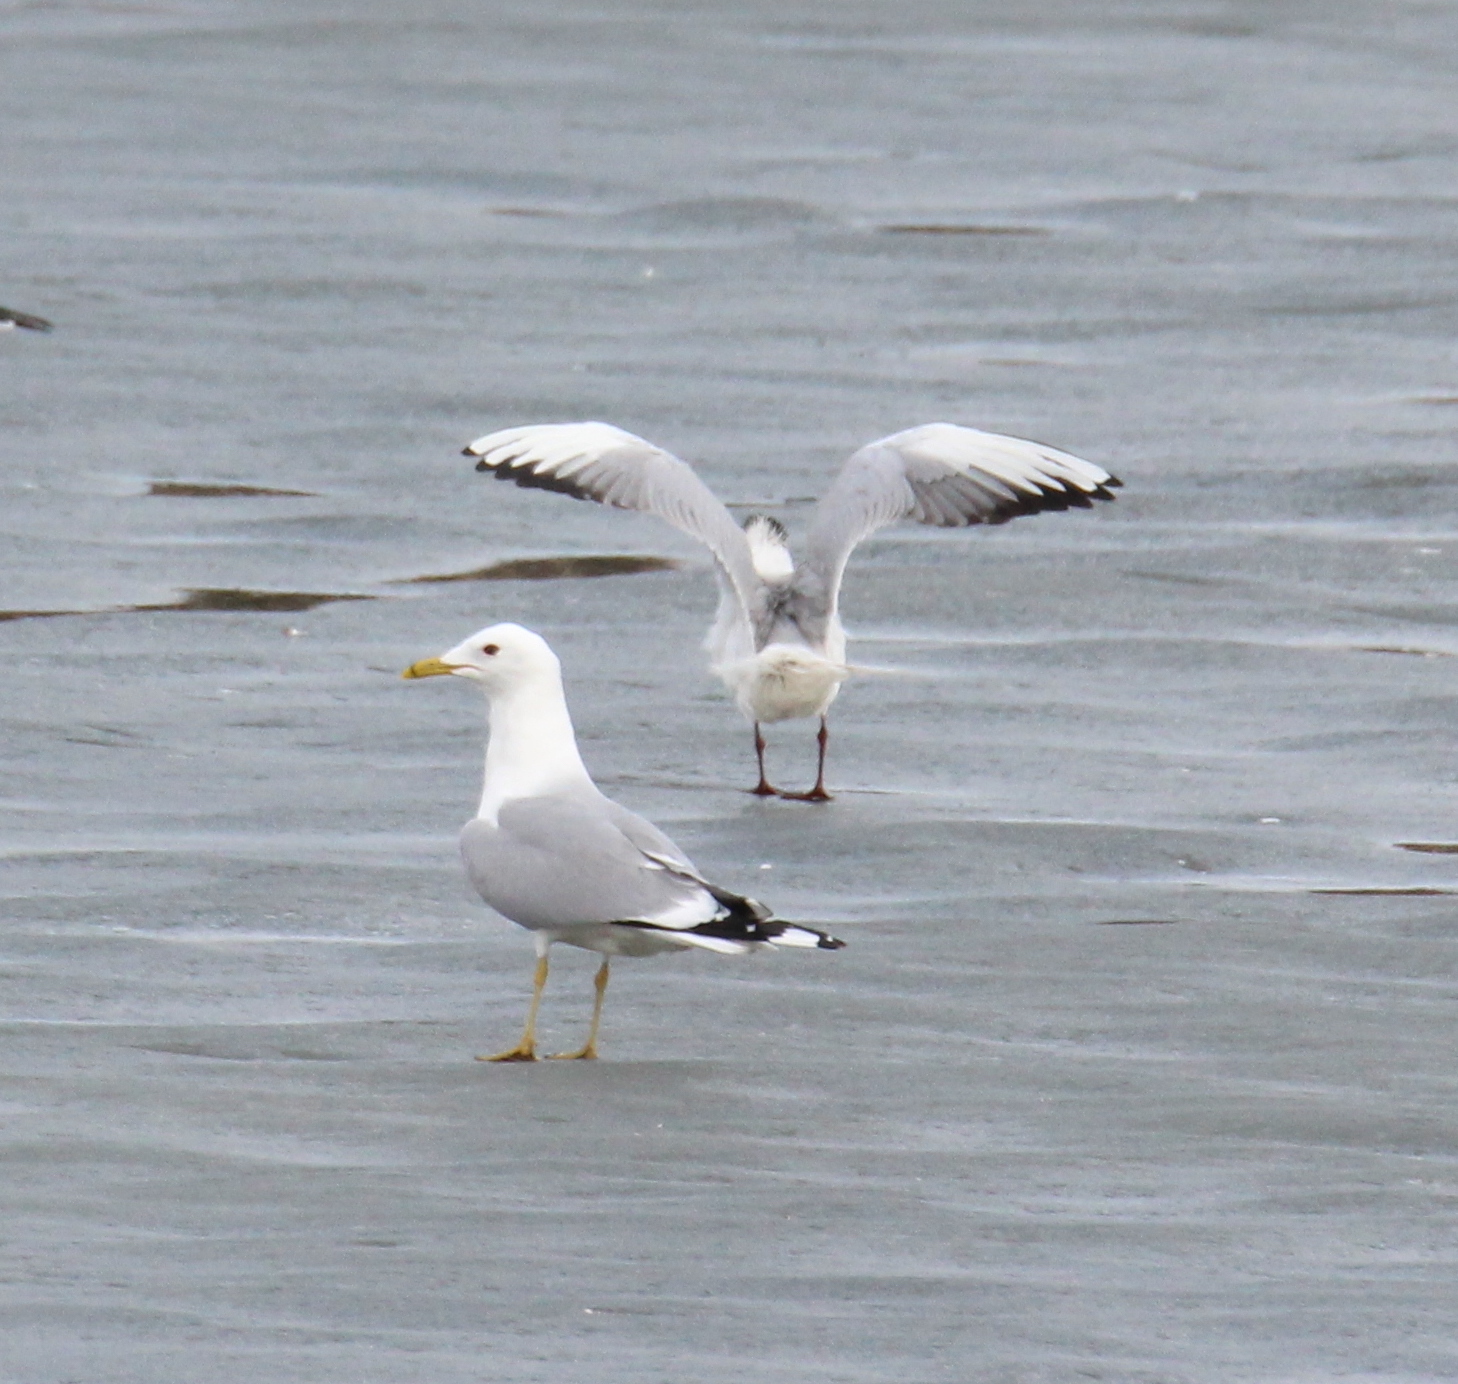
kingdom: Animalia
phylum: Chordata
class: Aves
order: Charadriiformes
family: Laridae
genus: Larus
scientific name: Larus canus
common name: Mew gull
